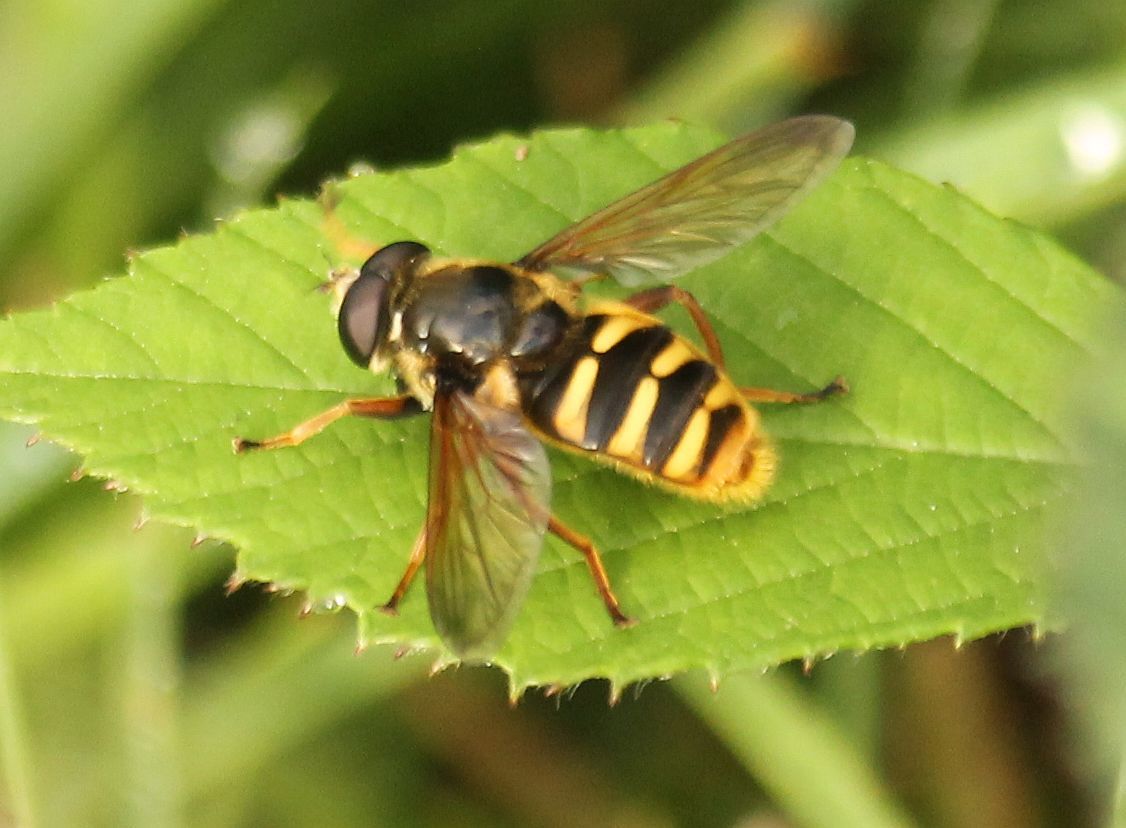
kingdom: Animalia
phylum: Arthropoda
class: Insecta
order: Diptera
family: Syrphidae
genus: Sericomyia
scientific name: Sericomyia silentis
